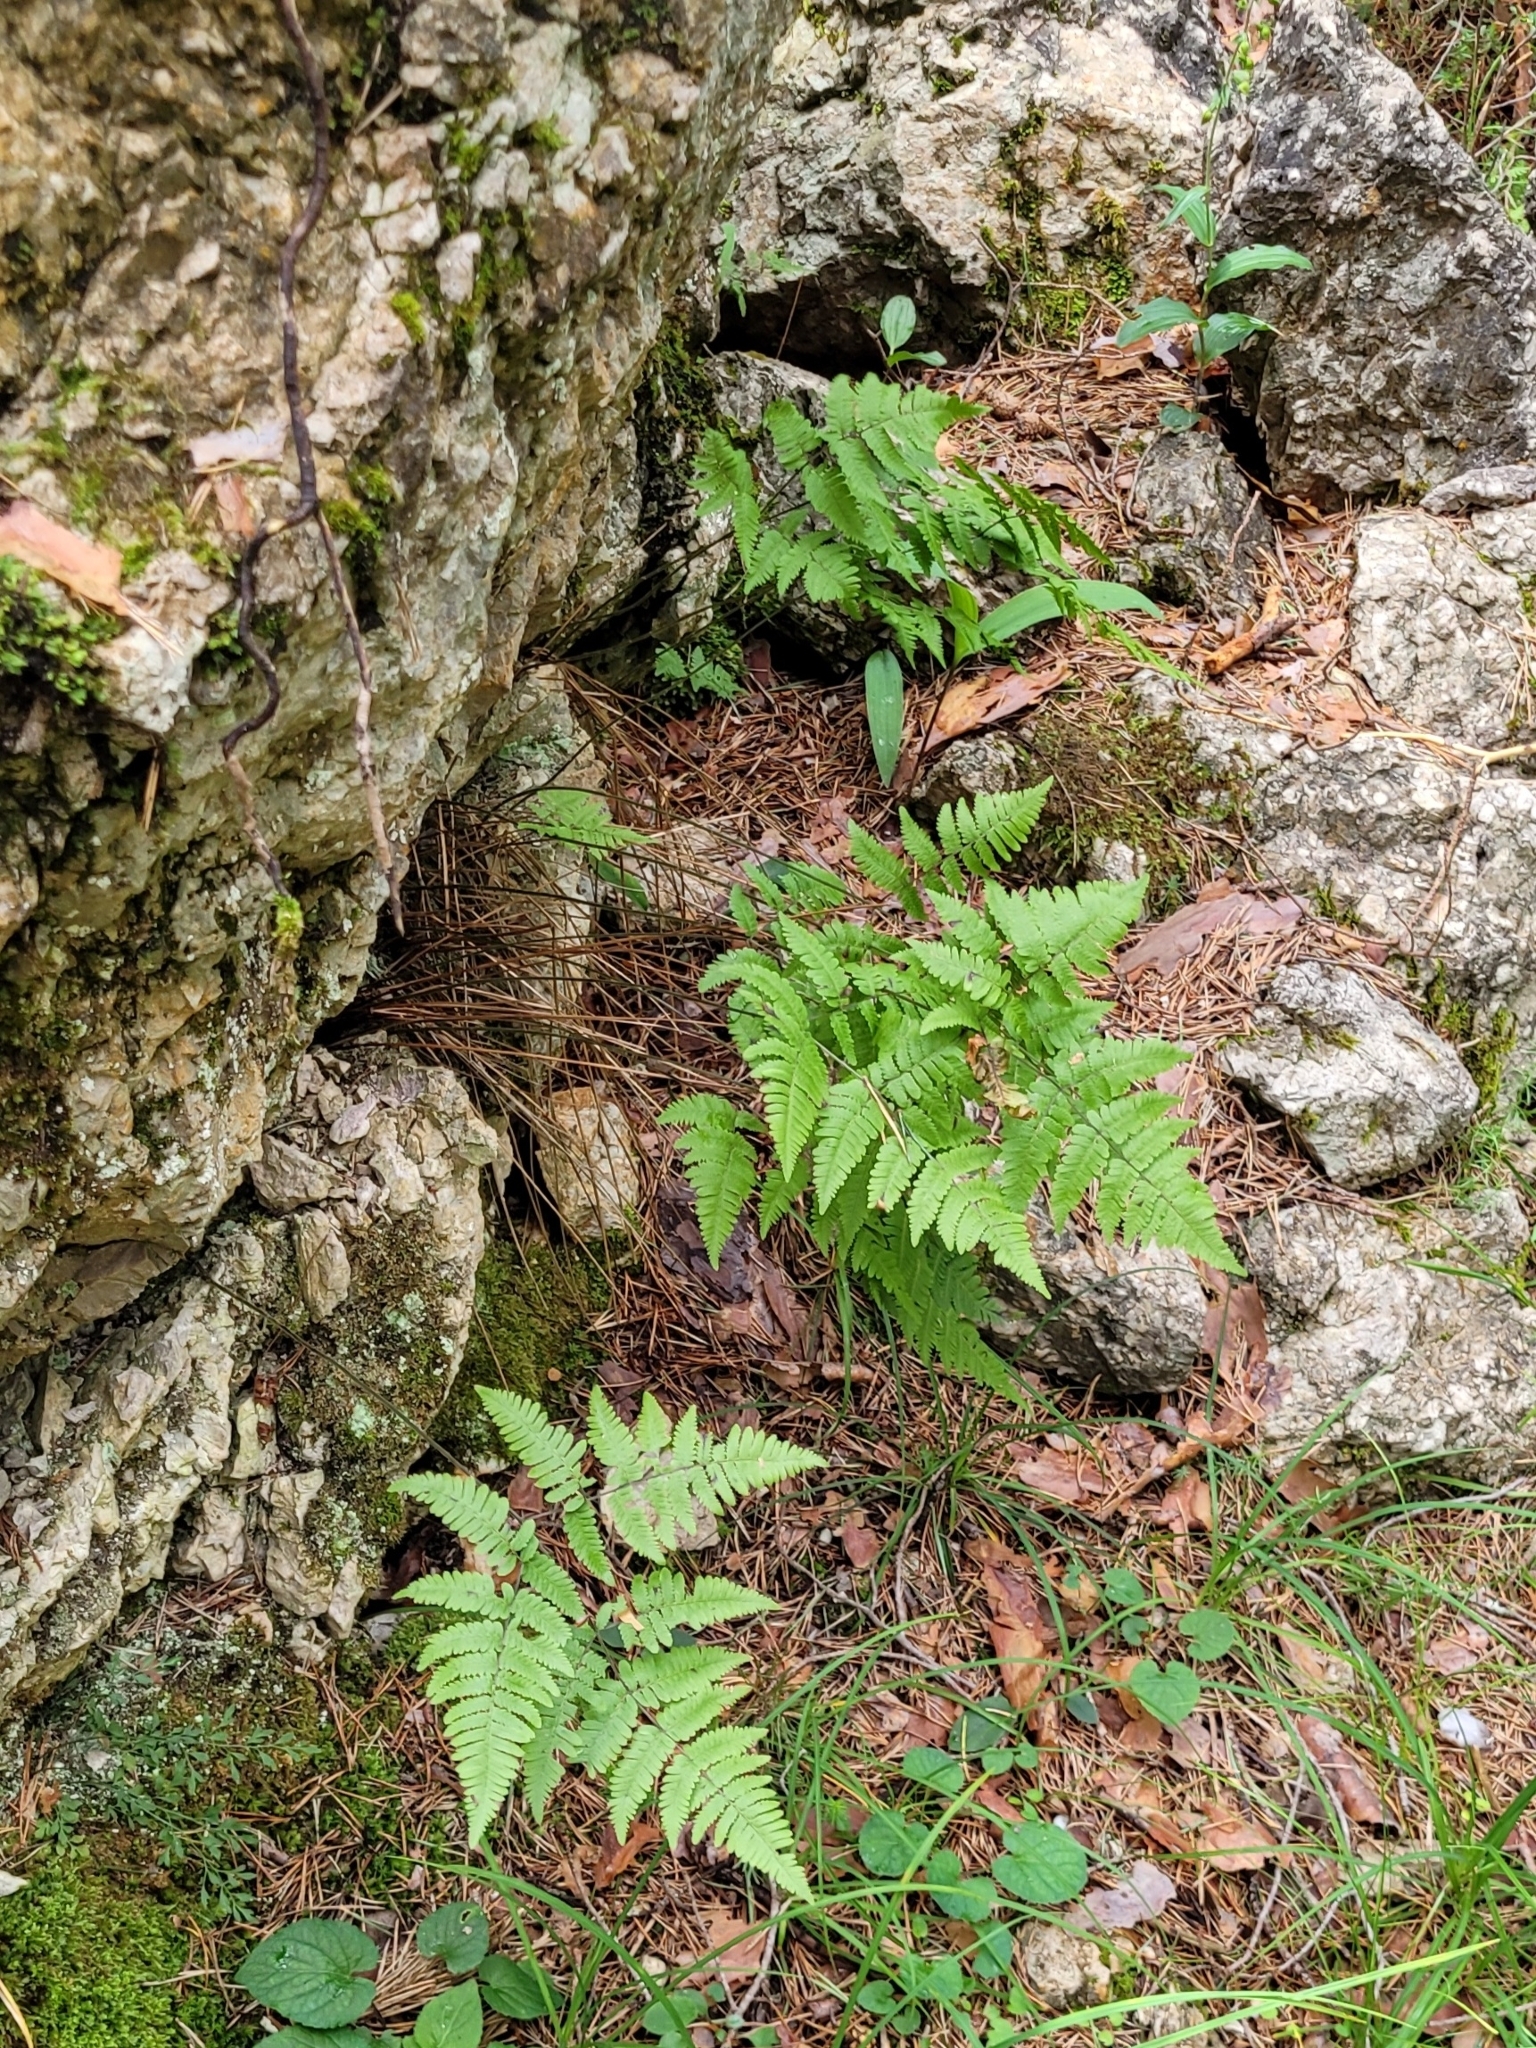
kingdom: Plantae
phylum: Tracheophyta
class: Polypodiopsida
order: Polypodiales
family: Cystopteridaceae
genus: Gymnocarpium
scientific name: Gymnocarpium robertianum
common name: Limestone fern
